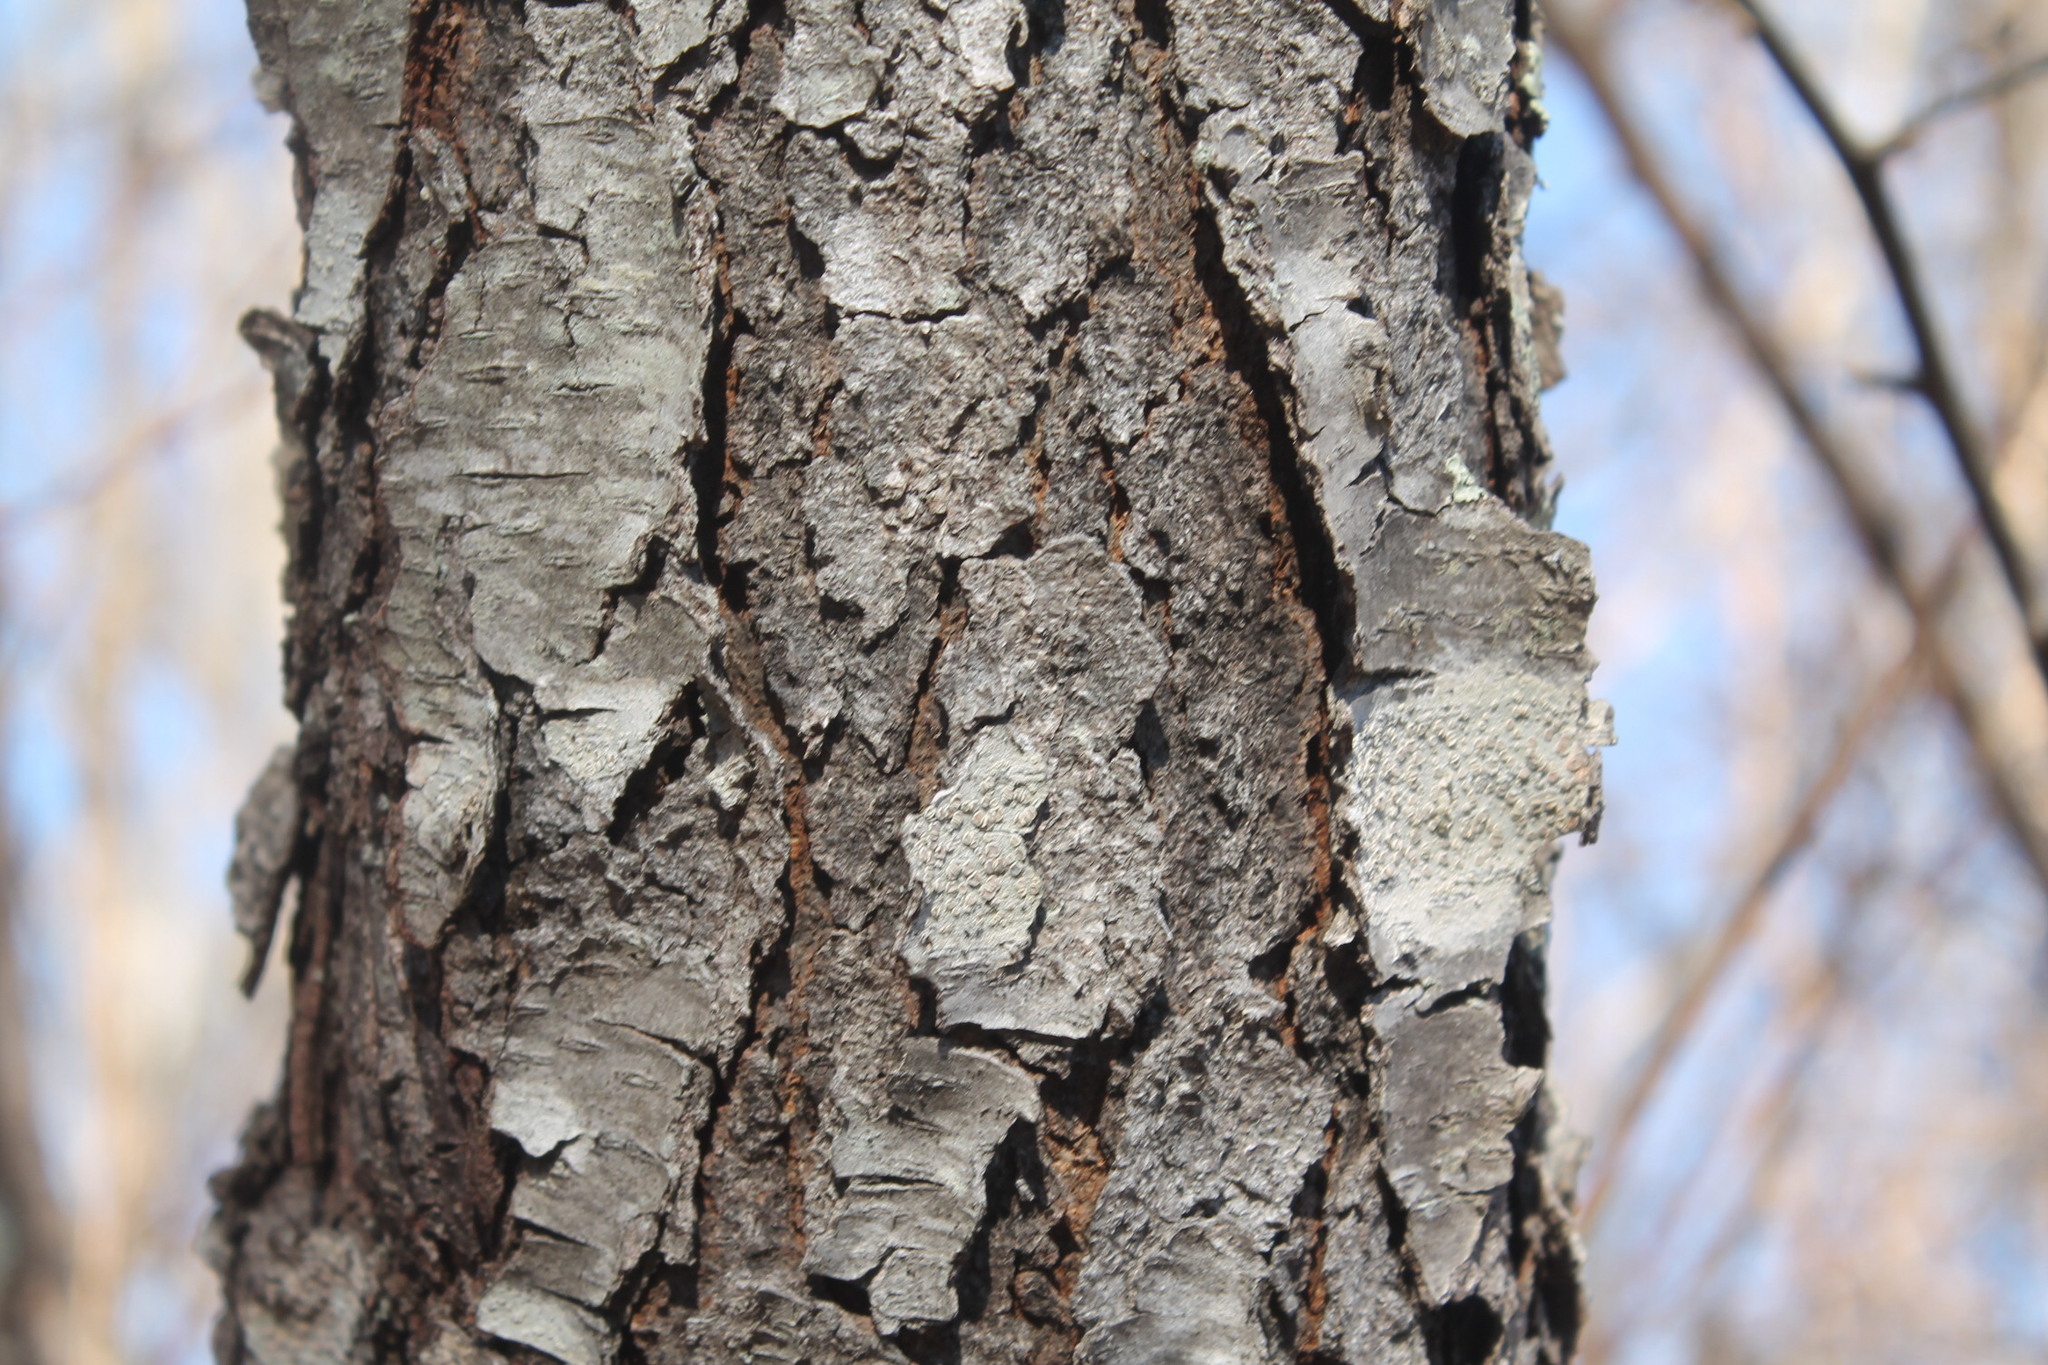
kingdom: Plantae
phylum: Tracheophyta
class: Magnoliopsida
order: Rosales
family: Rosaceae
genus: Prunus
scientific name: Prunus serotina
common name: Black cherry
